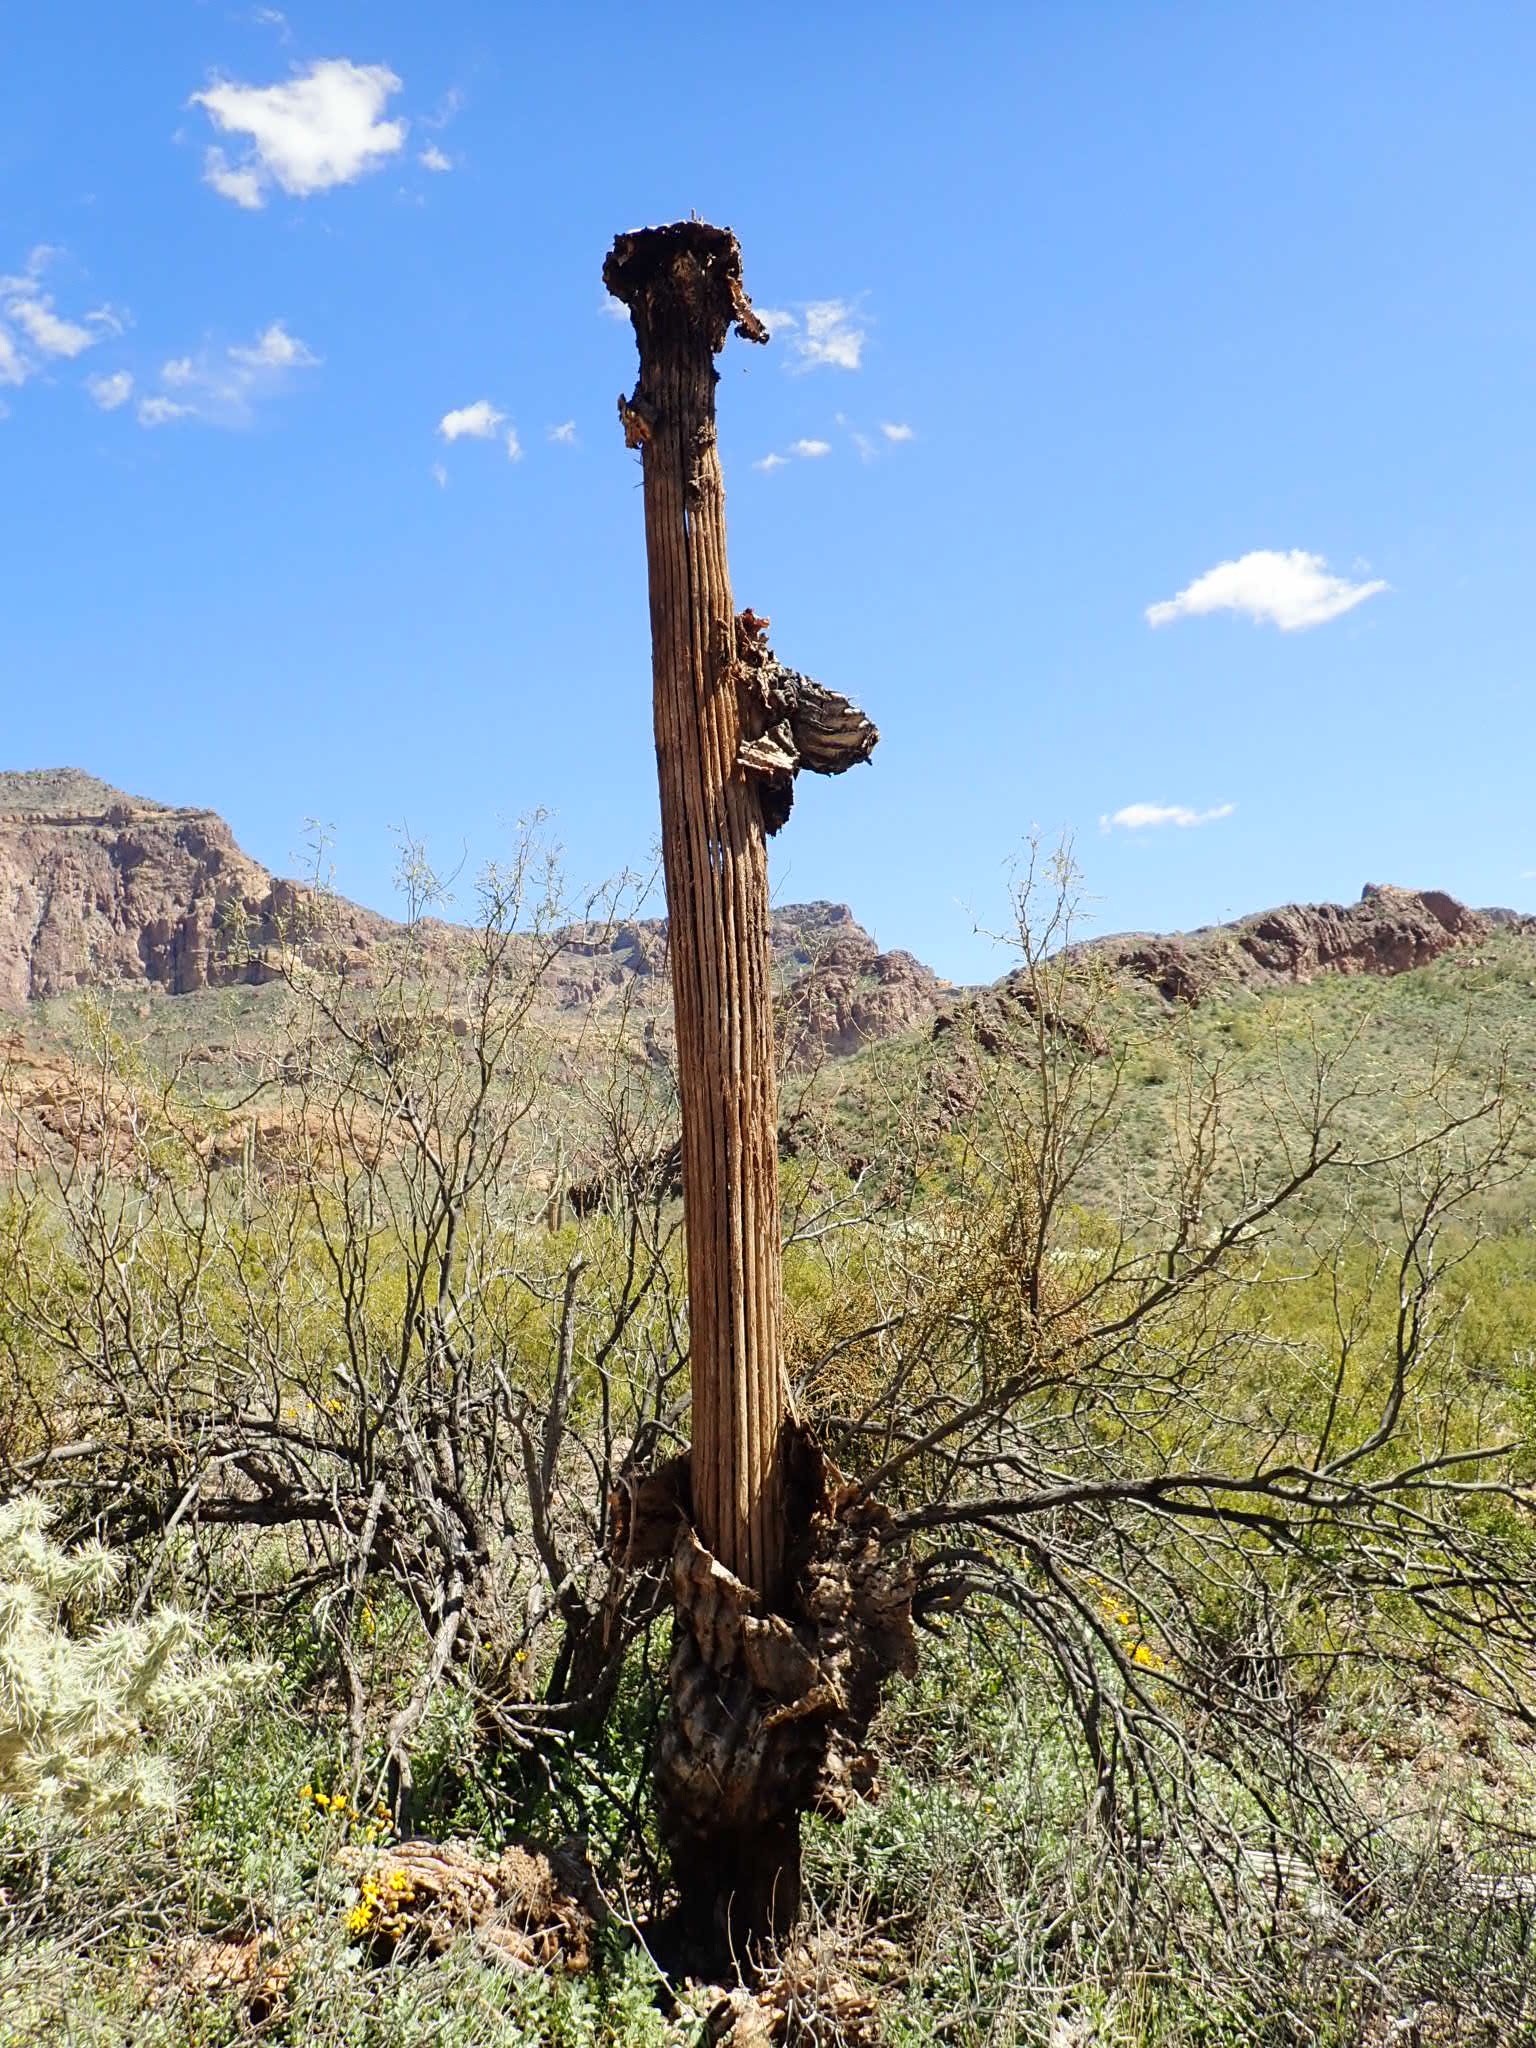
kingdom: Plantae
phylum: Tracheophyta
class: Magnoliopsida
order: Caryophyllales
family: Cactaceae
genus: Carnegiea
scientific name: Carnegiea gigantea
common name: Saguaro
